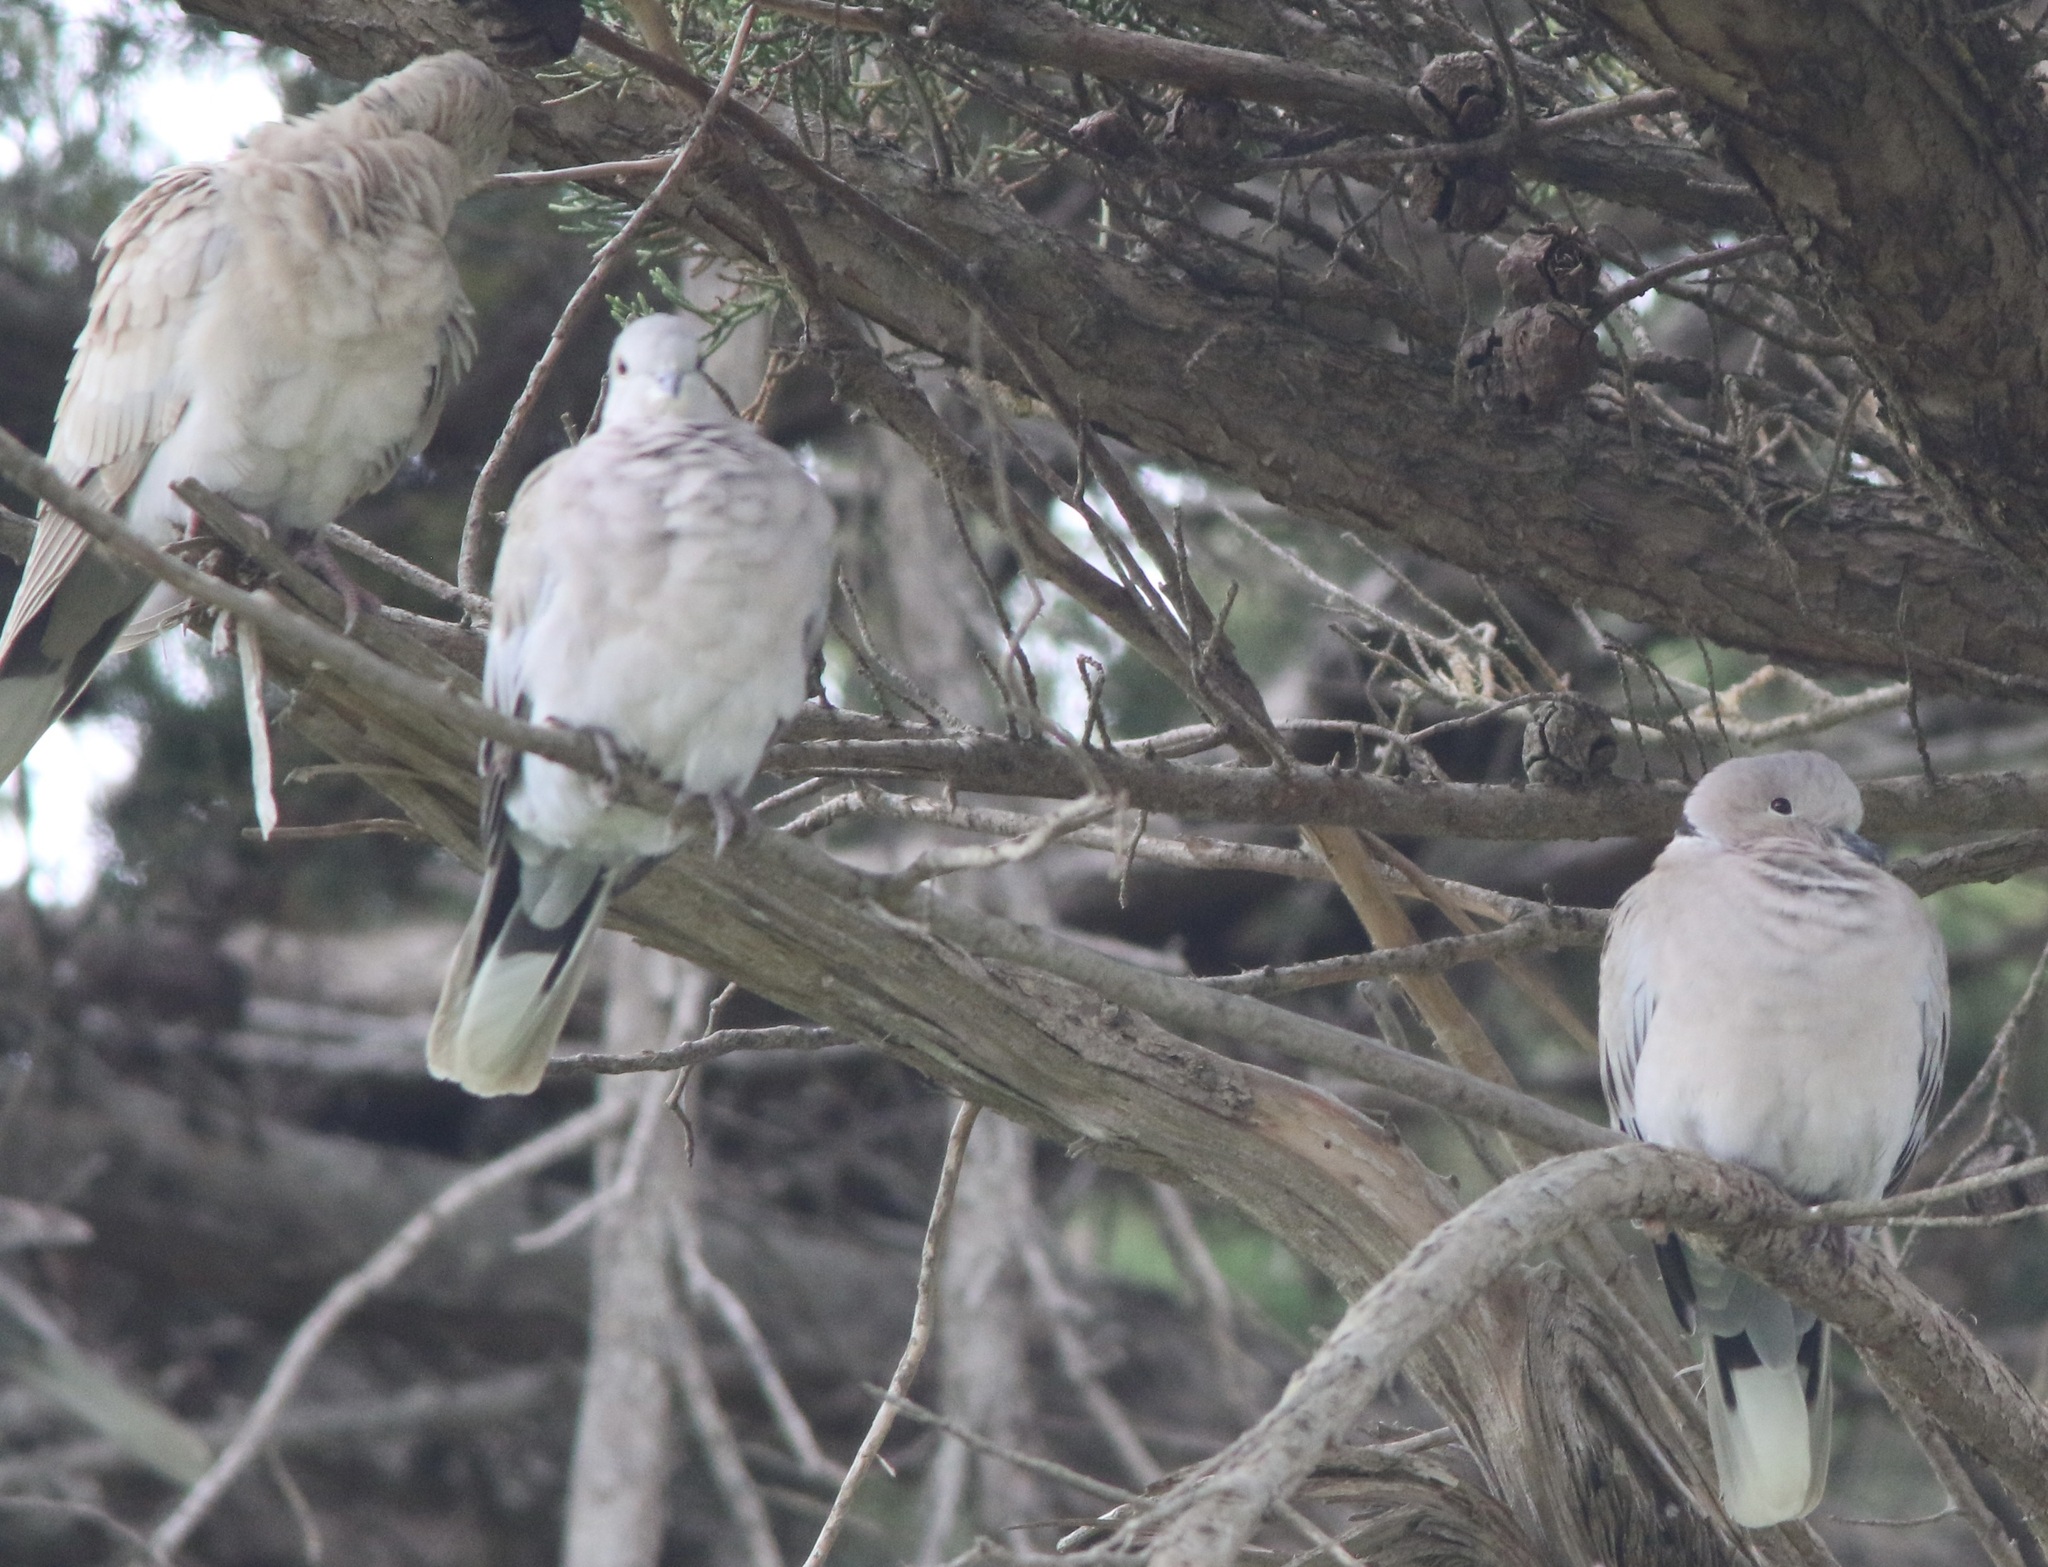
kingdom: Animalia
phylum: Chordata
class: Aves
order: Columbiformes
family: Columbidae
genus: Streptopelia
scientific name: Streptopelia decaocto
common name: Eurasian collared dove
